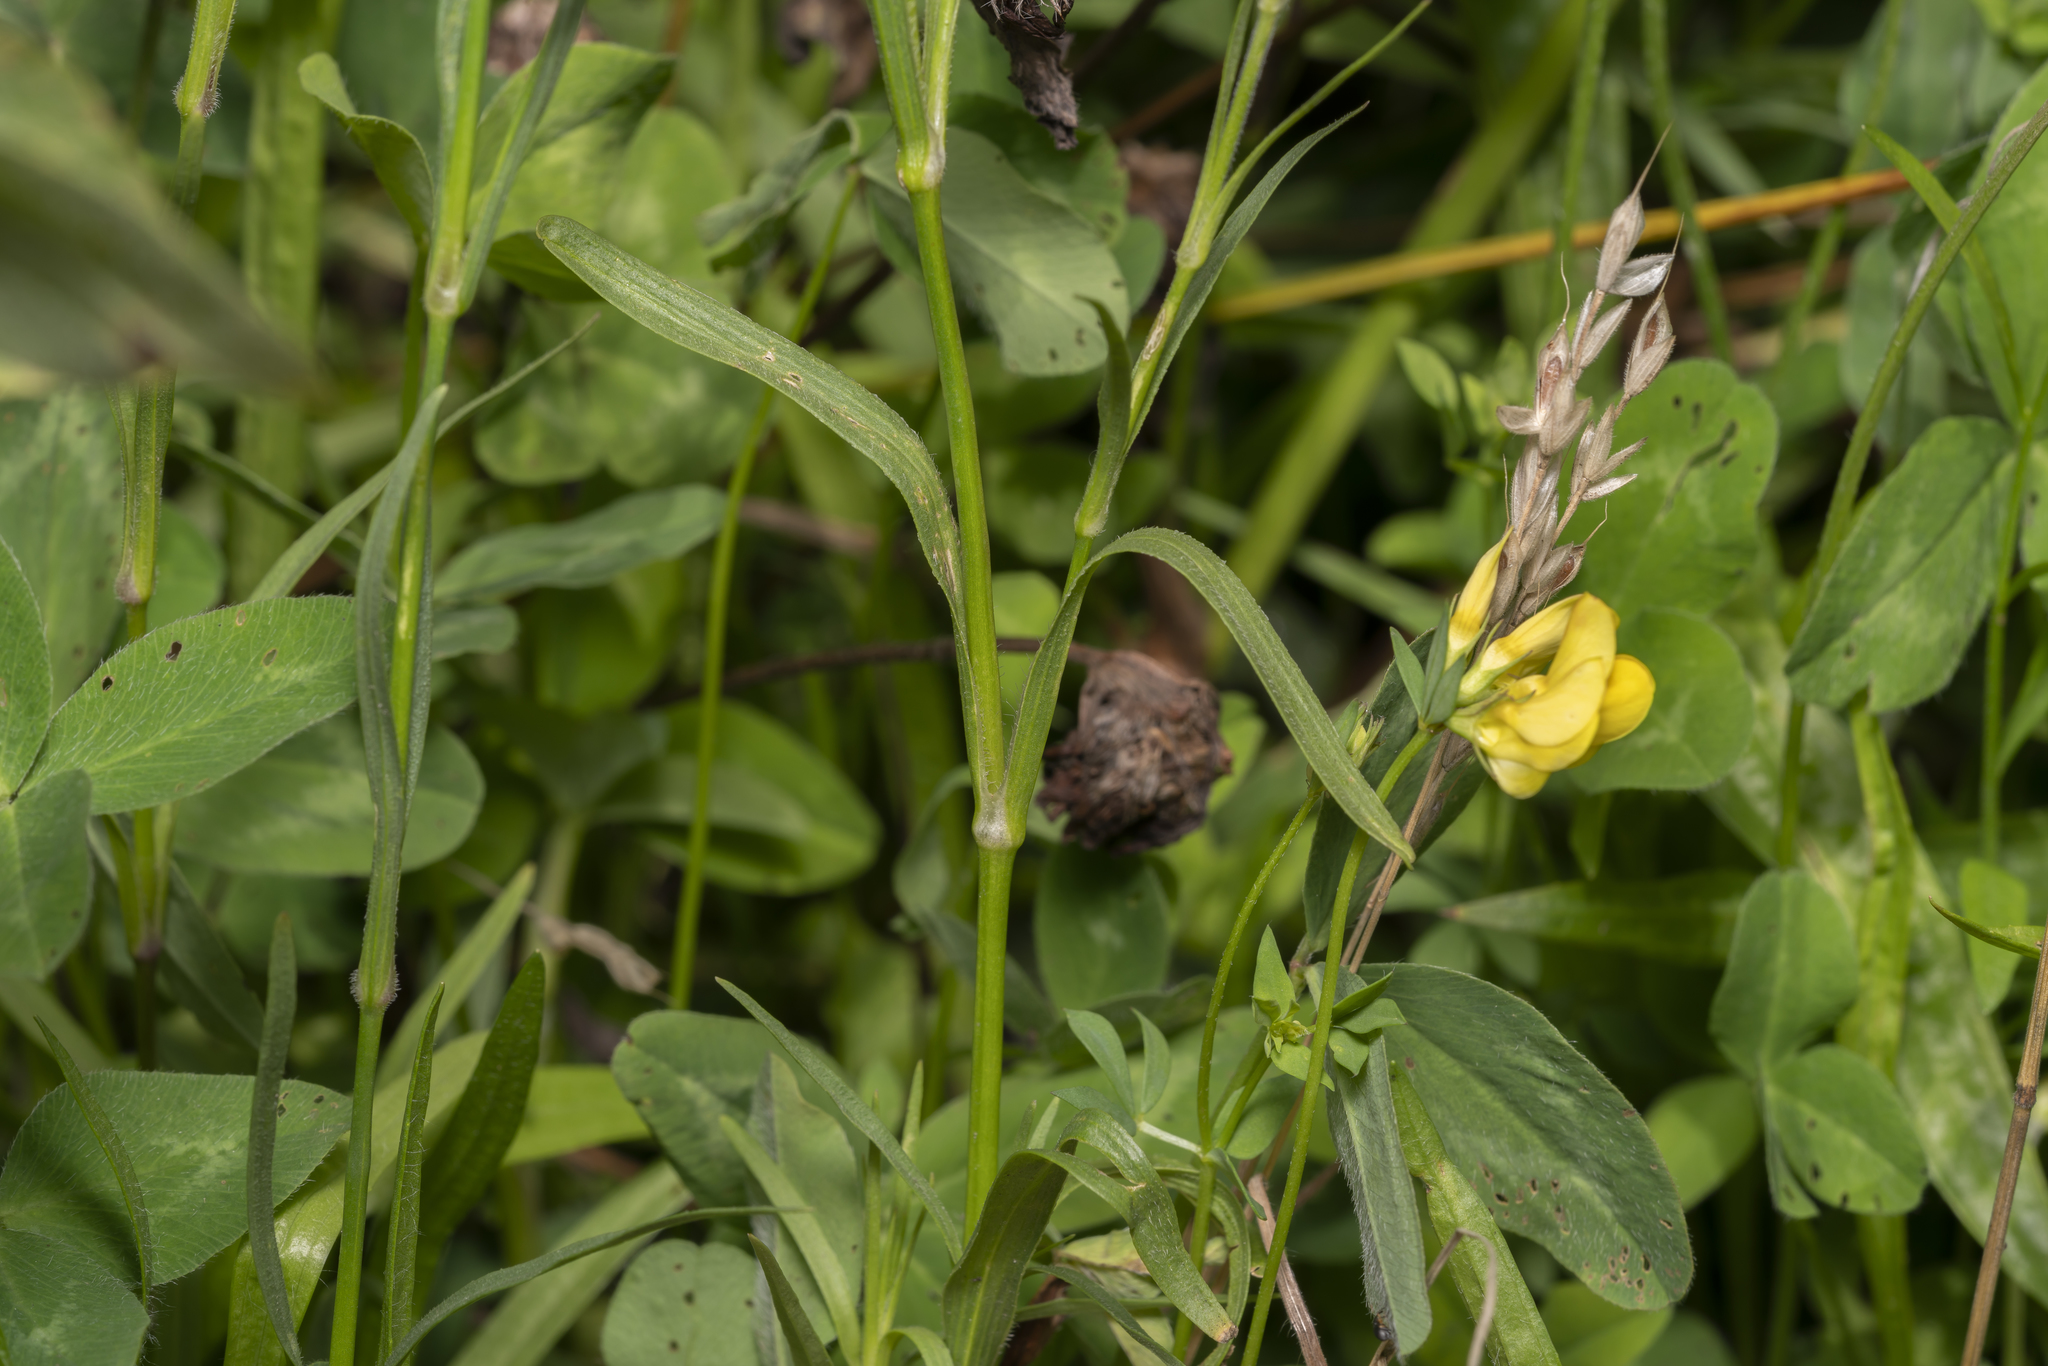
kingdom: Plantae
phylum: Tracheophyta
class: Magnoliopsida
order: Caryophyllales
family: Caryophyllaceae
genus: Dianthus
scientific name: Dianthus armeria
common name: Deptford pink
